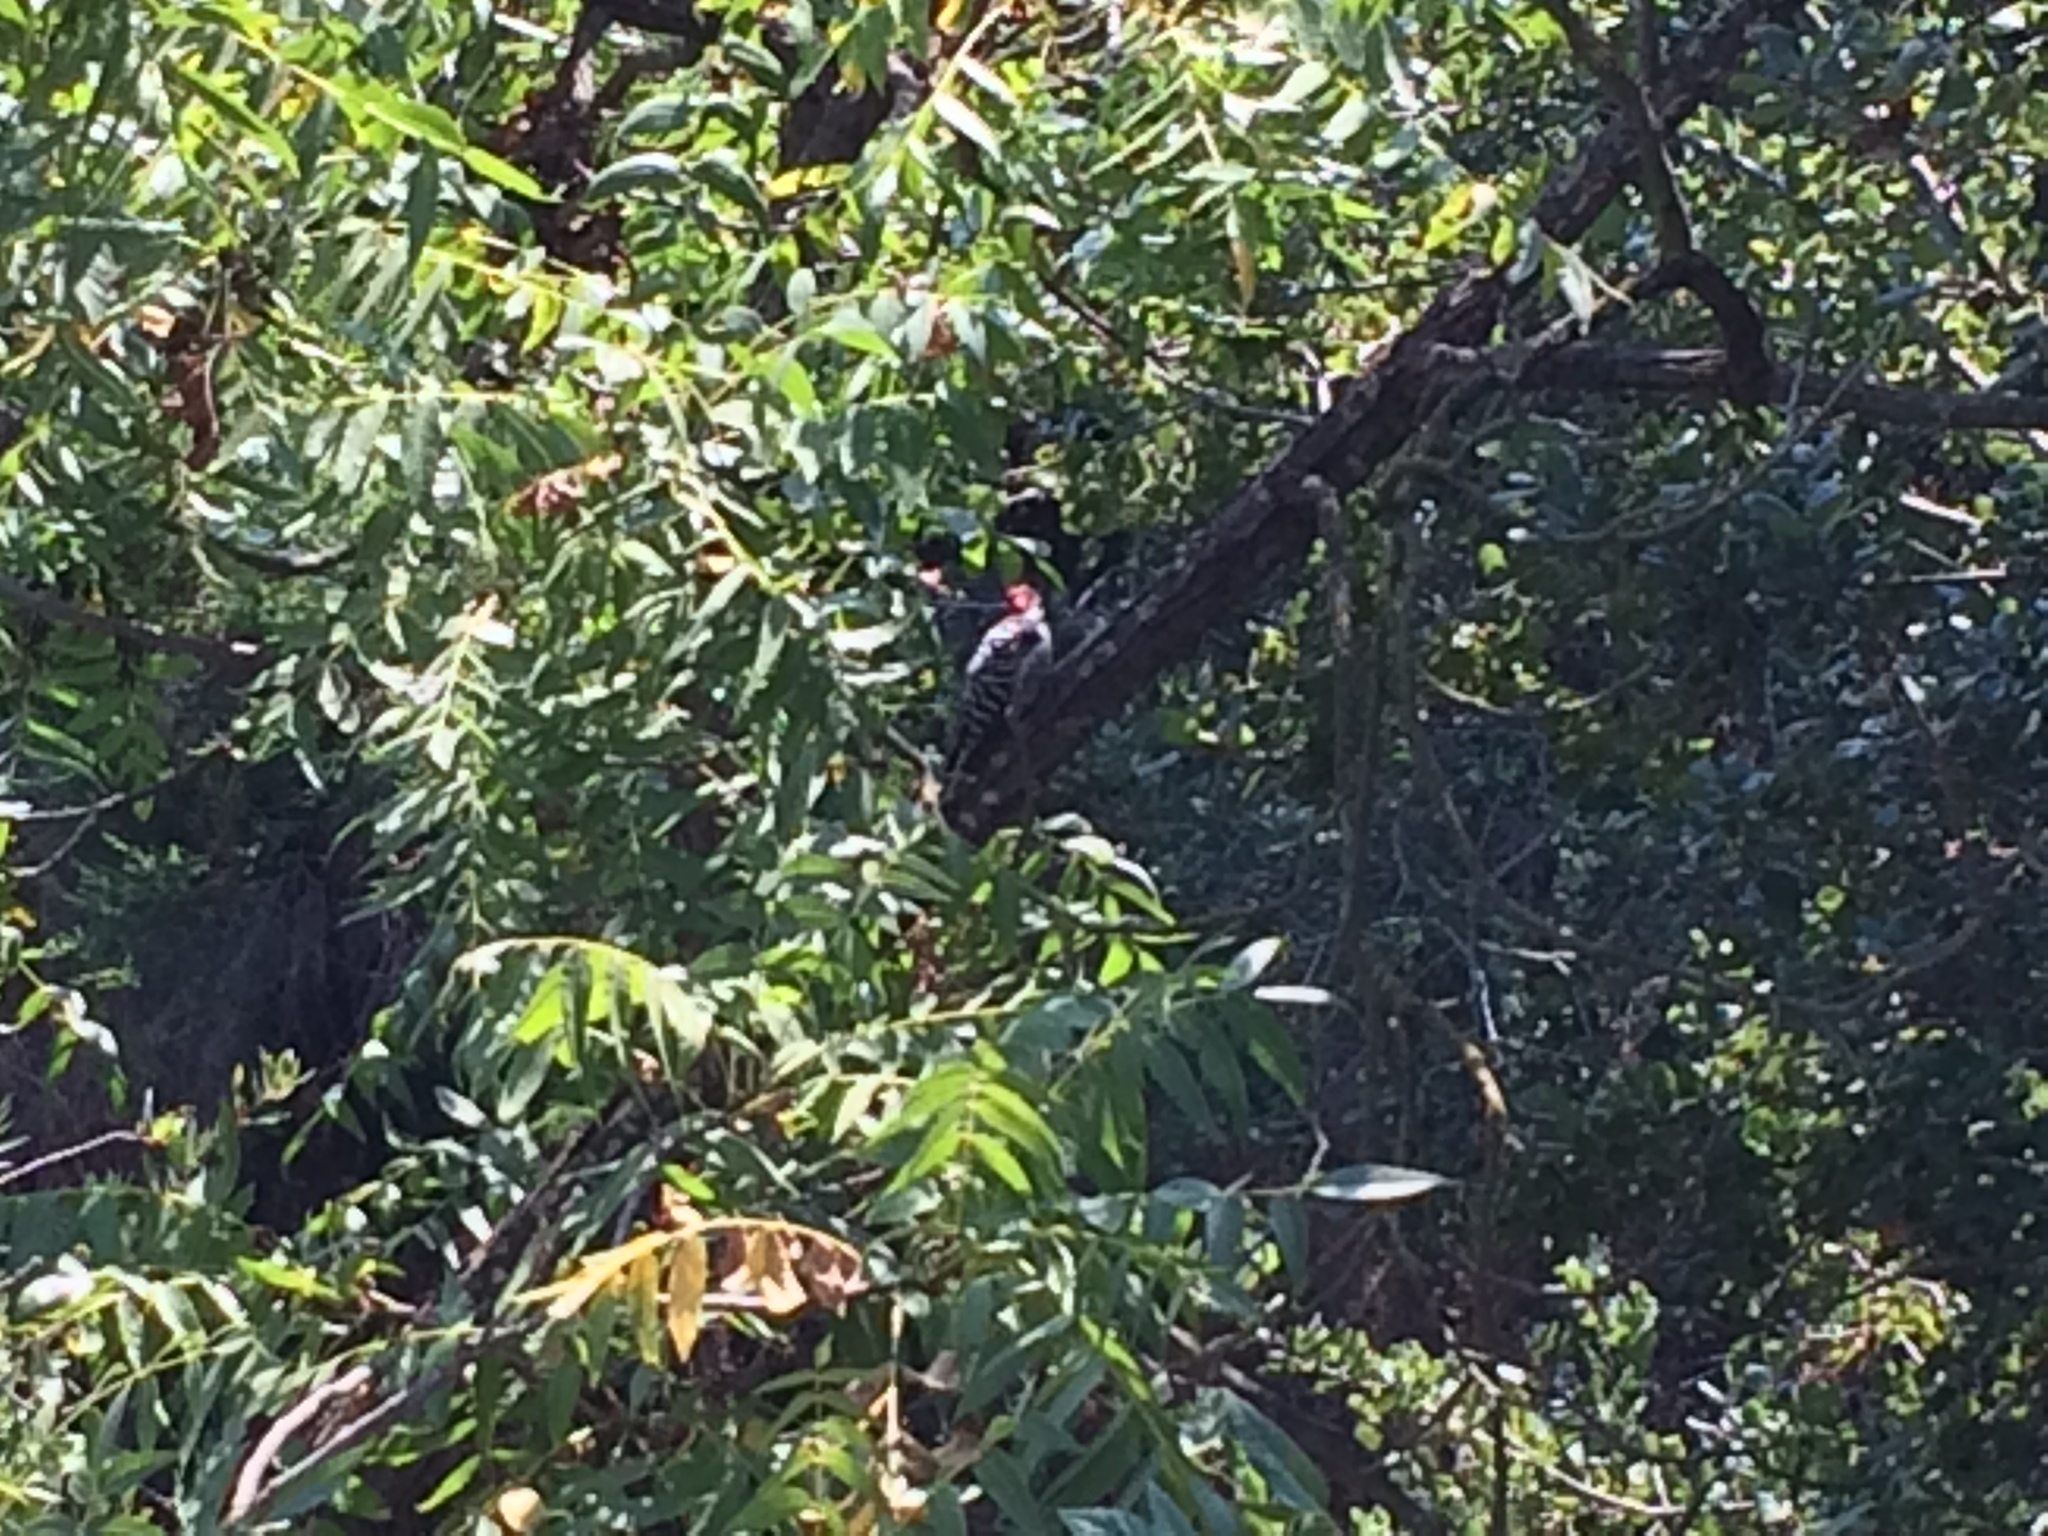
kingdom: Animalia
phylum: Chordata
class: Aves
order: Piciformes
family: Picidae
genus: Dryobates
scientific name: Dryobates nuttallii
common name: Nuttall's woodpecker
